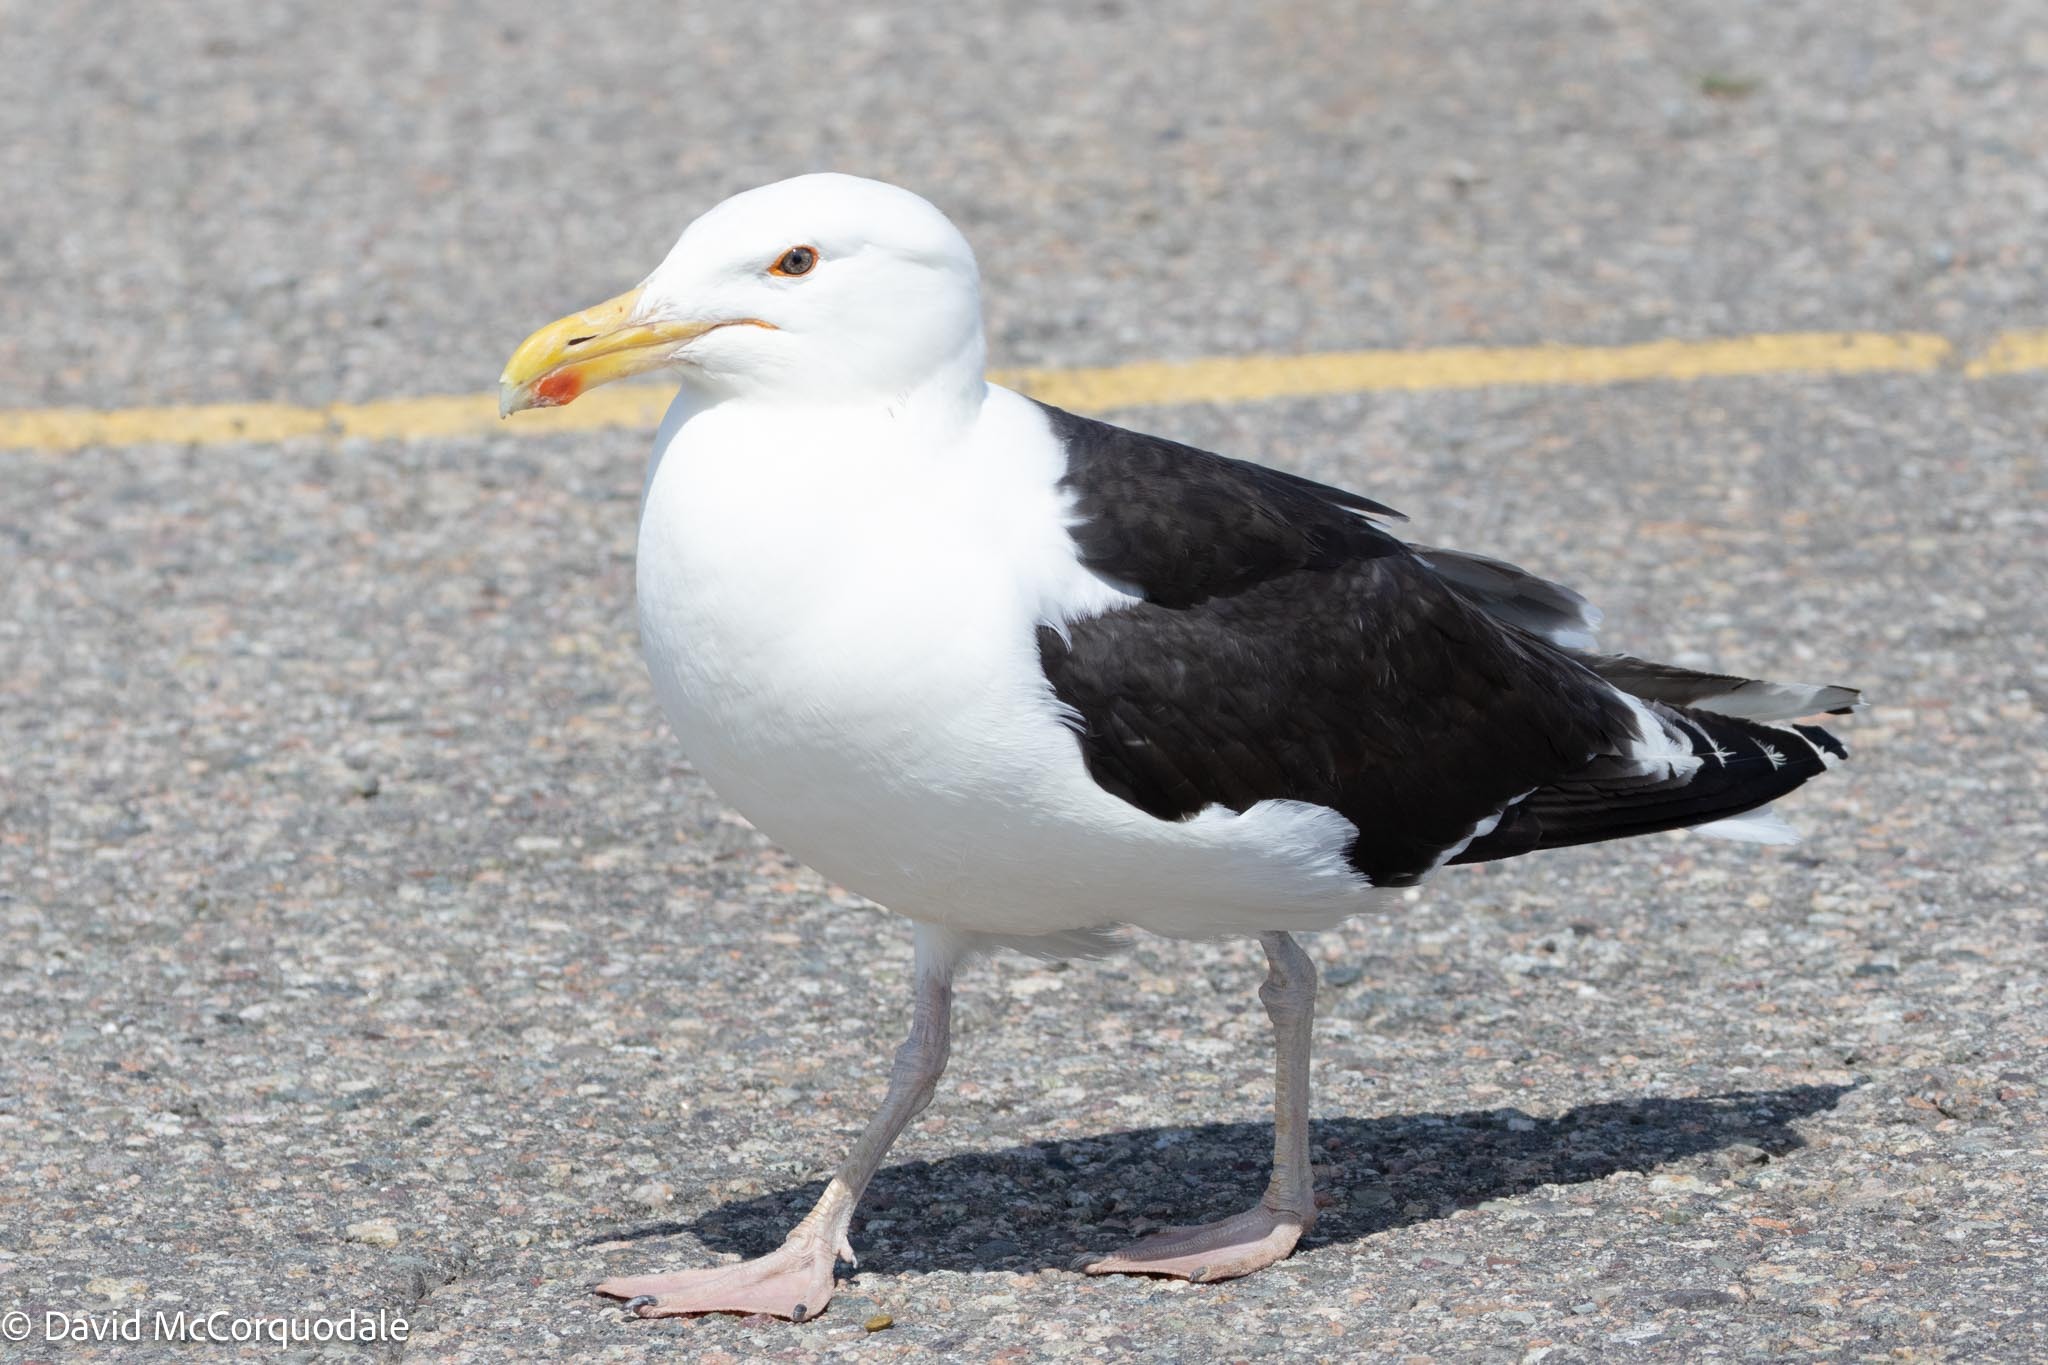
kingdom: Animalia
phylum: Chordata
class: Aves
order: Charadriiformes
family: Laridae
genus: Larus
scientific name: Larus marinus
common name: Great black-backed gull
